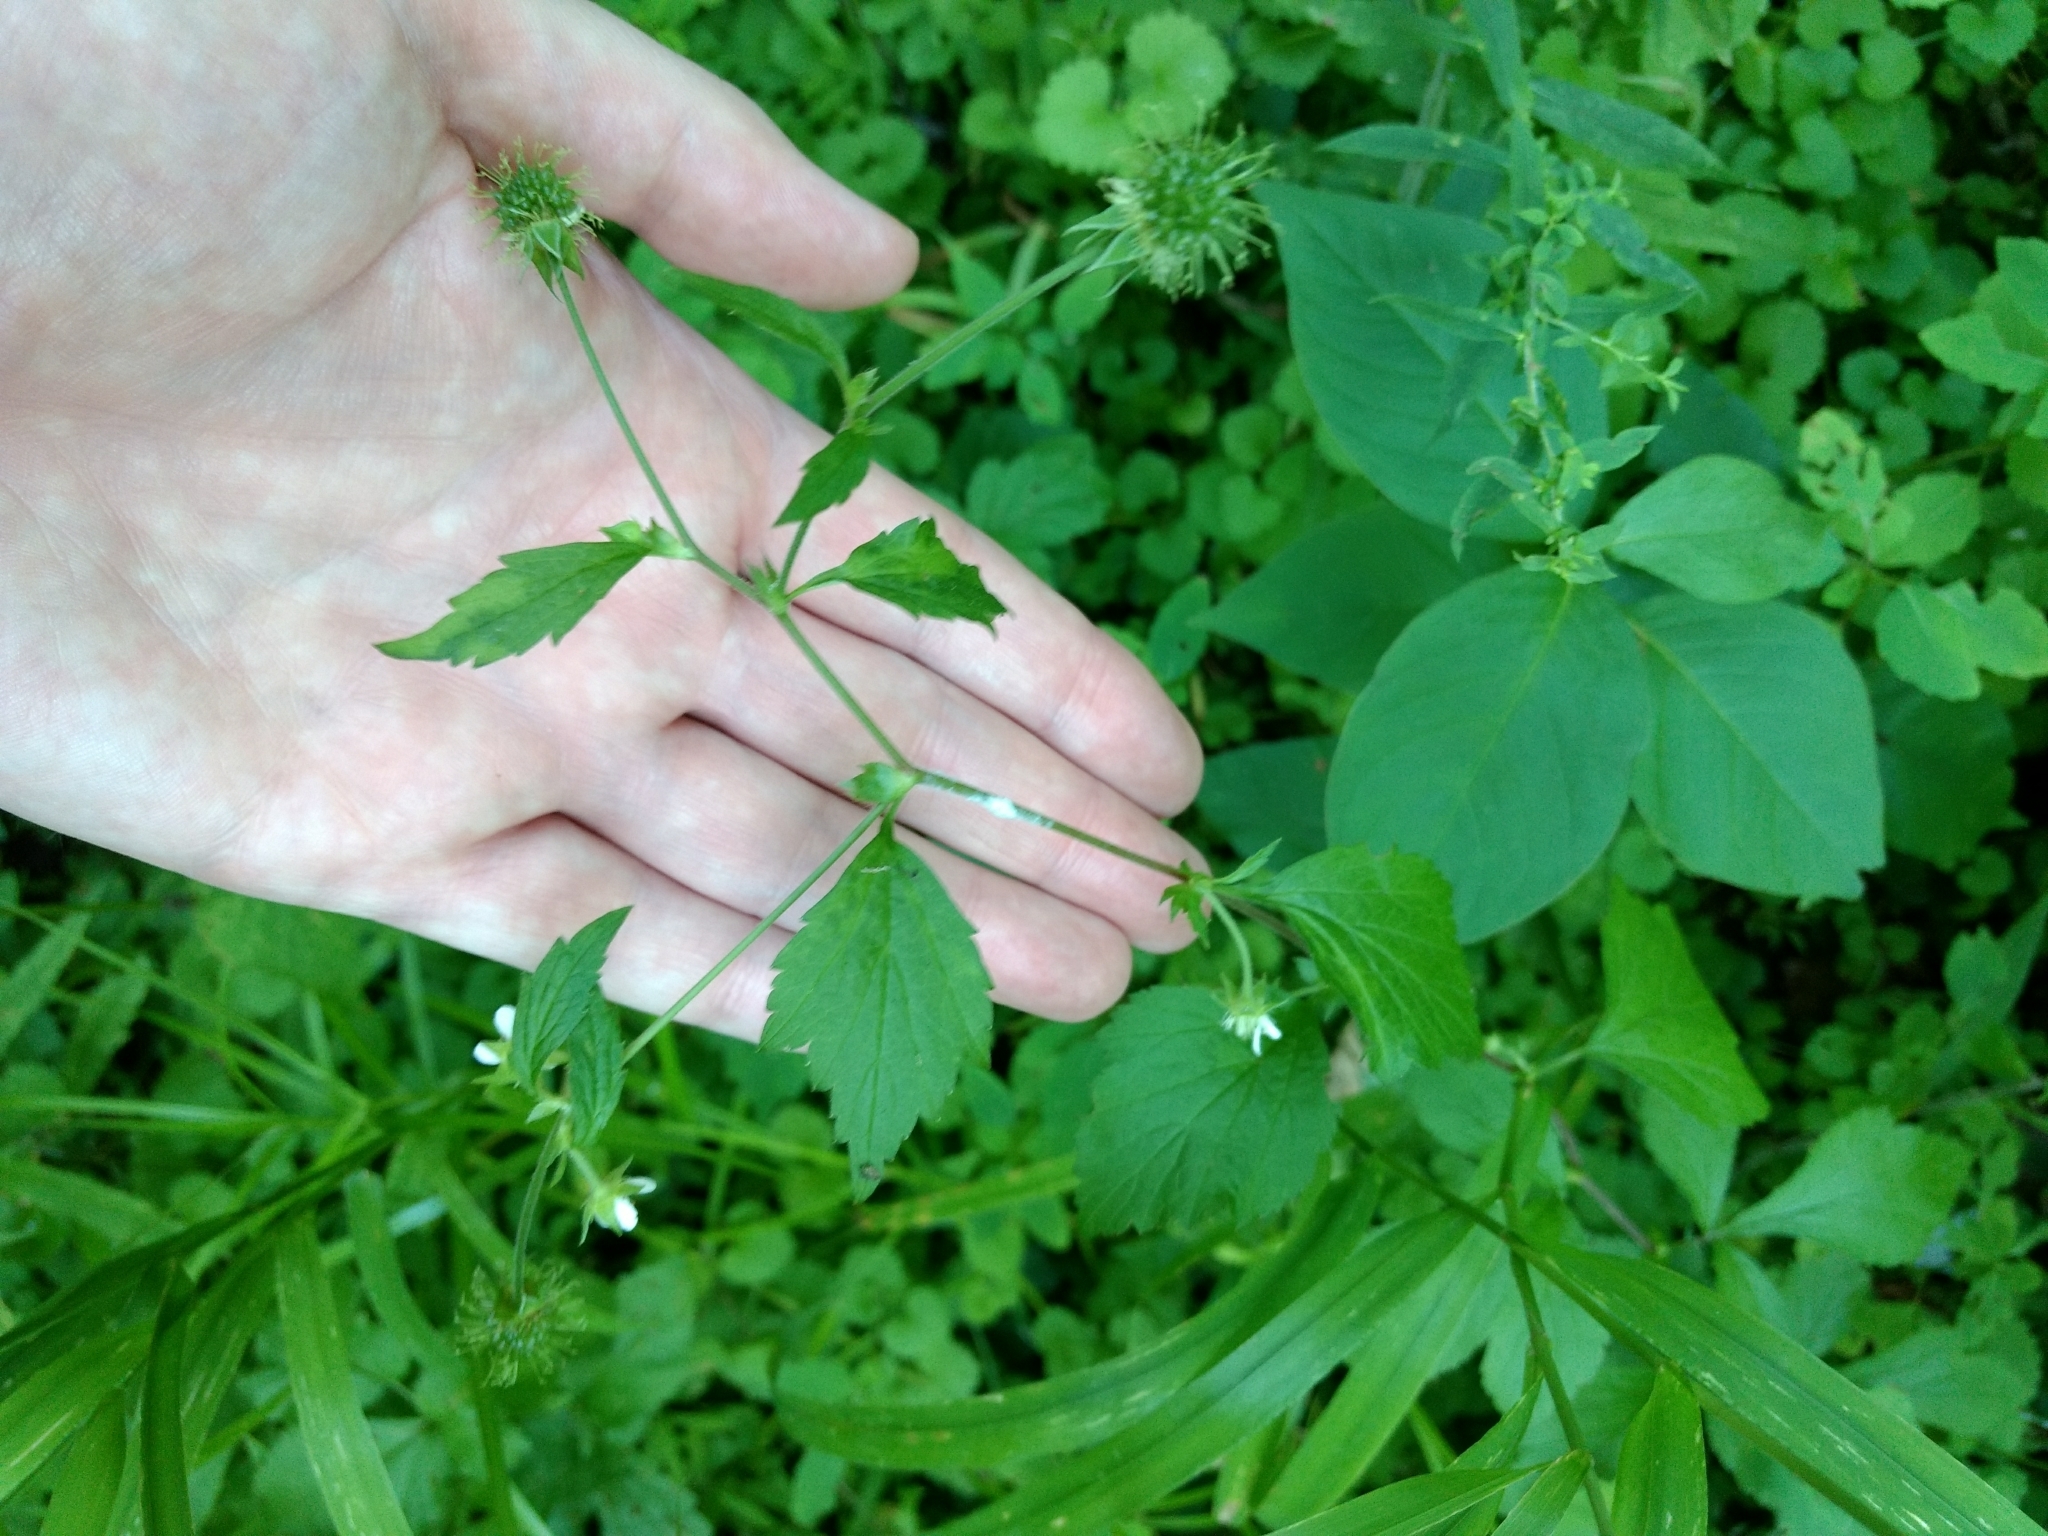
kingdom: Plantae
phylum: Tracheophyta
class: Magnoliopsida
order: Rosales
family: Rosaceae
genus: Geum
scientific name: Geum canadense
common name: White avens
